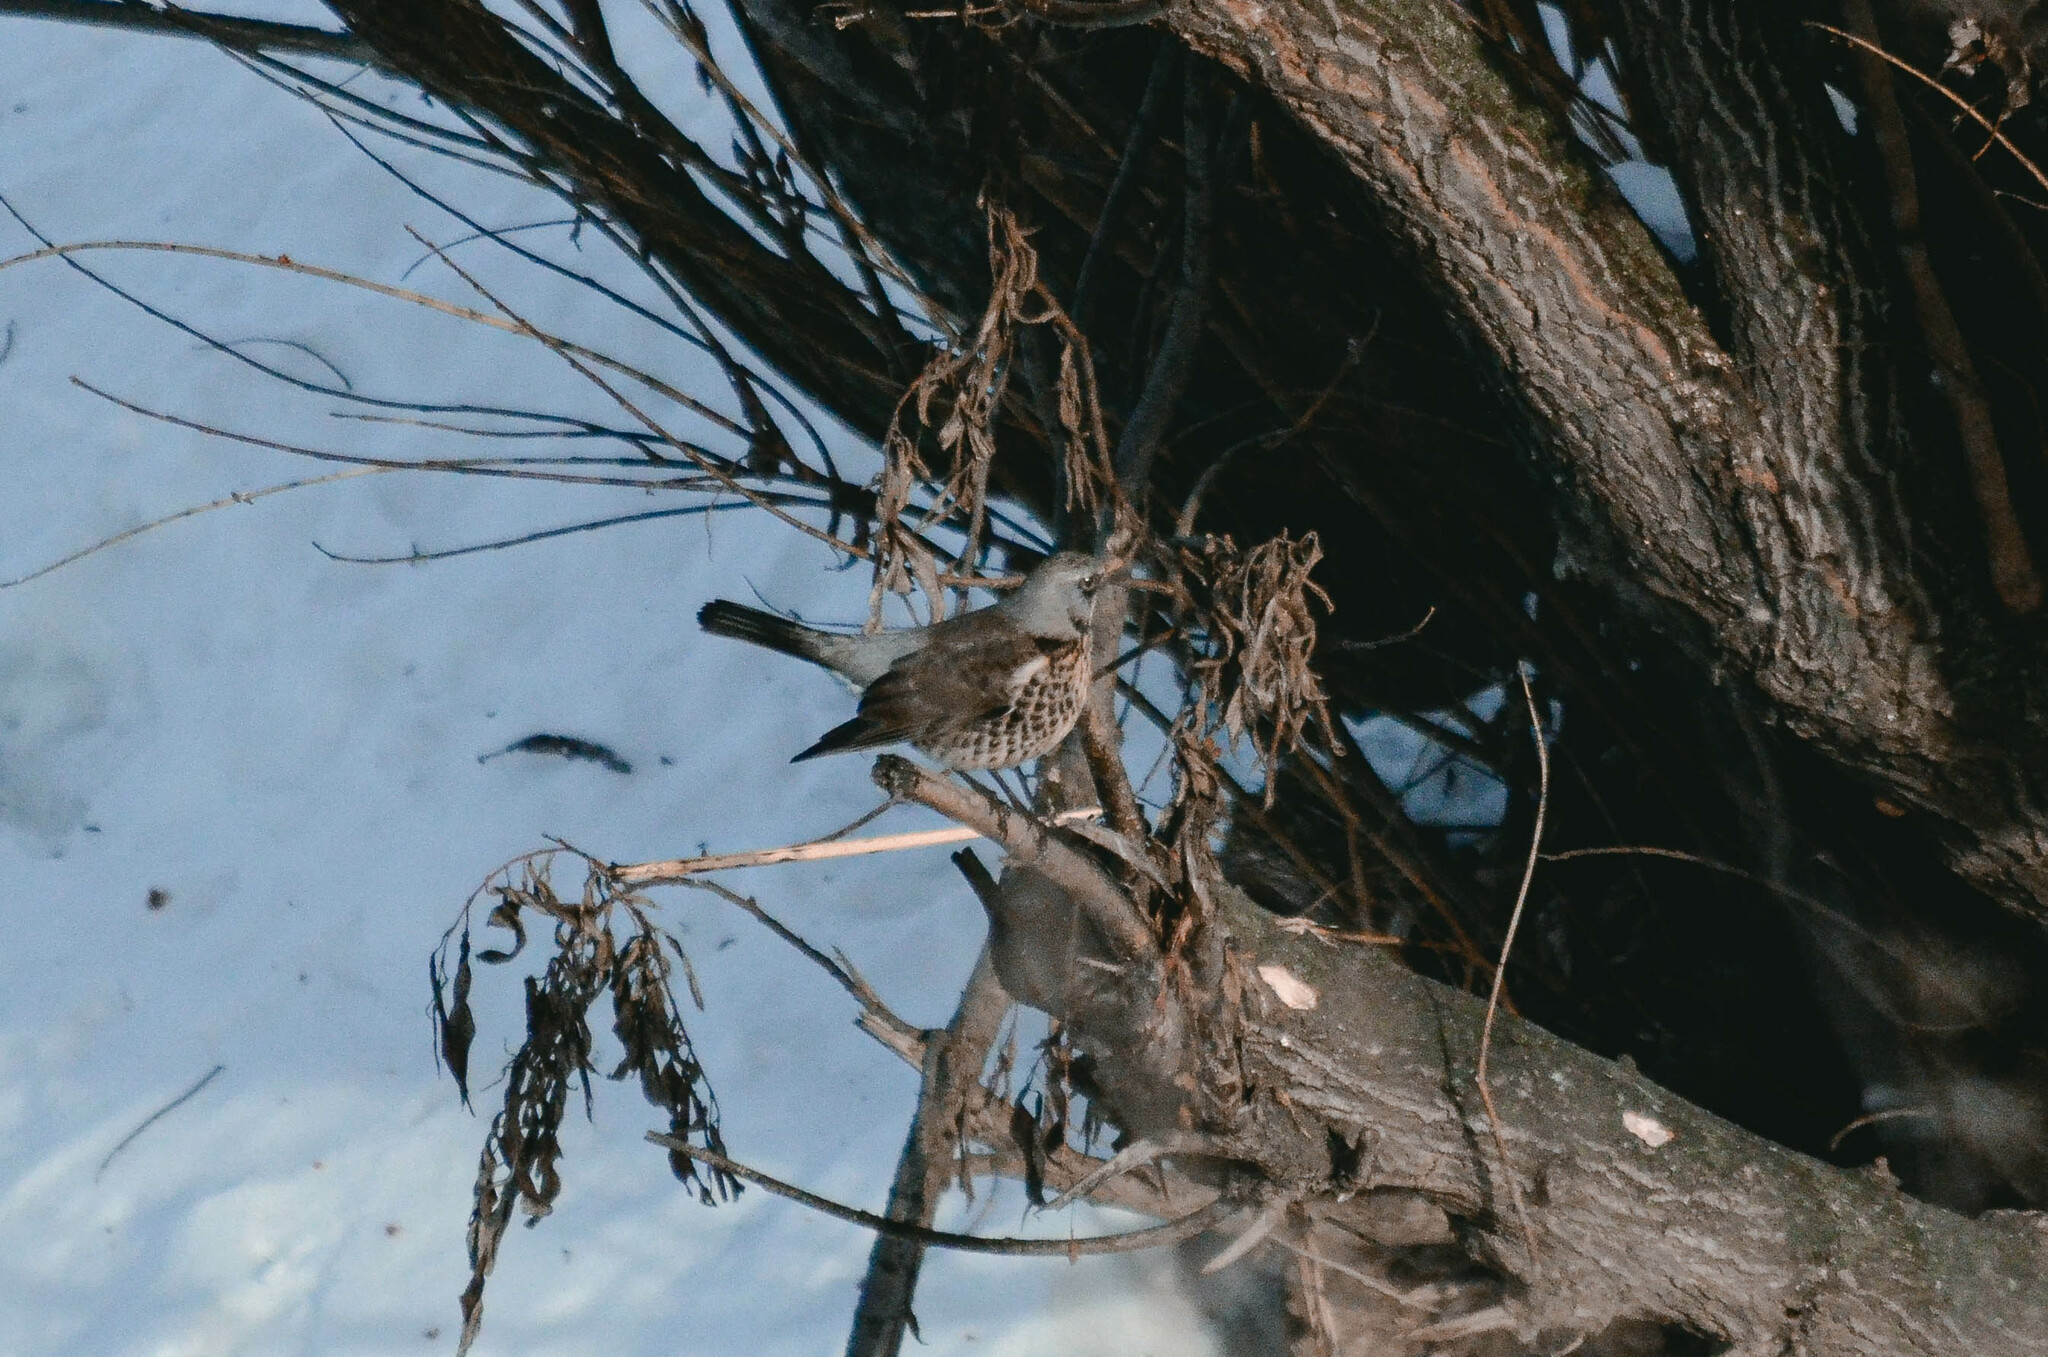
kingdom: Animalia
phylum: Chordata
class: Aves
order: Passeriformes
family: Turdidae
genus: Turdus
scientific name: Turdus pilaris
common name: Fieldfare
